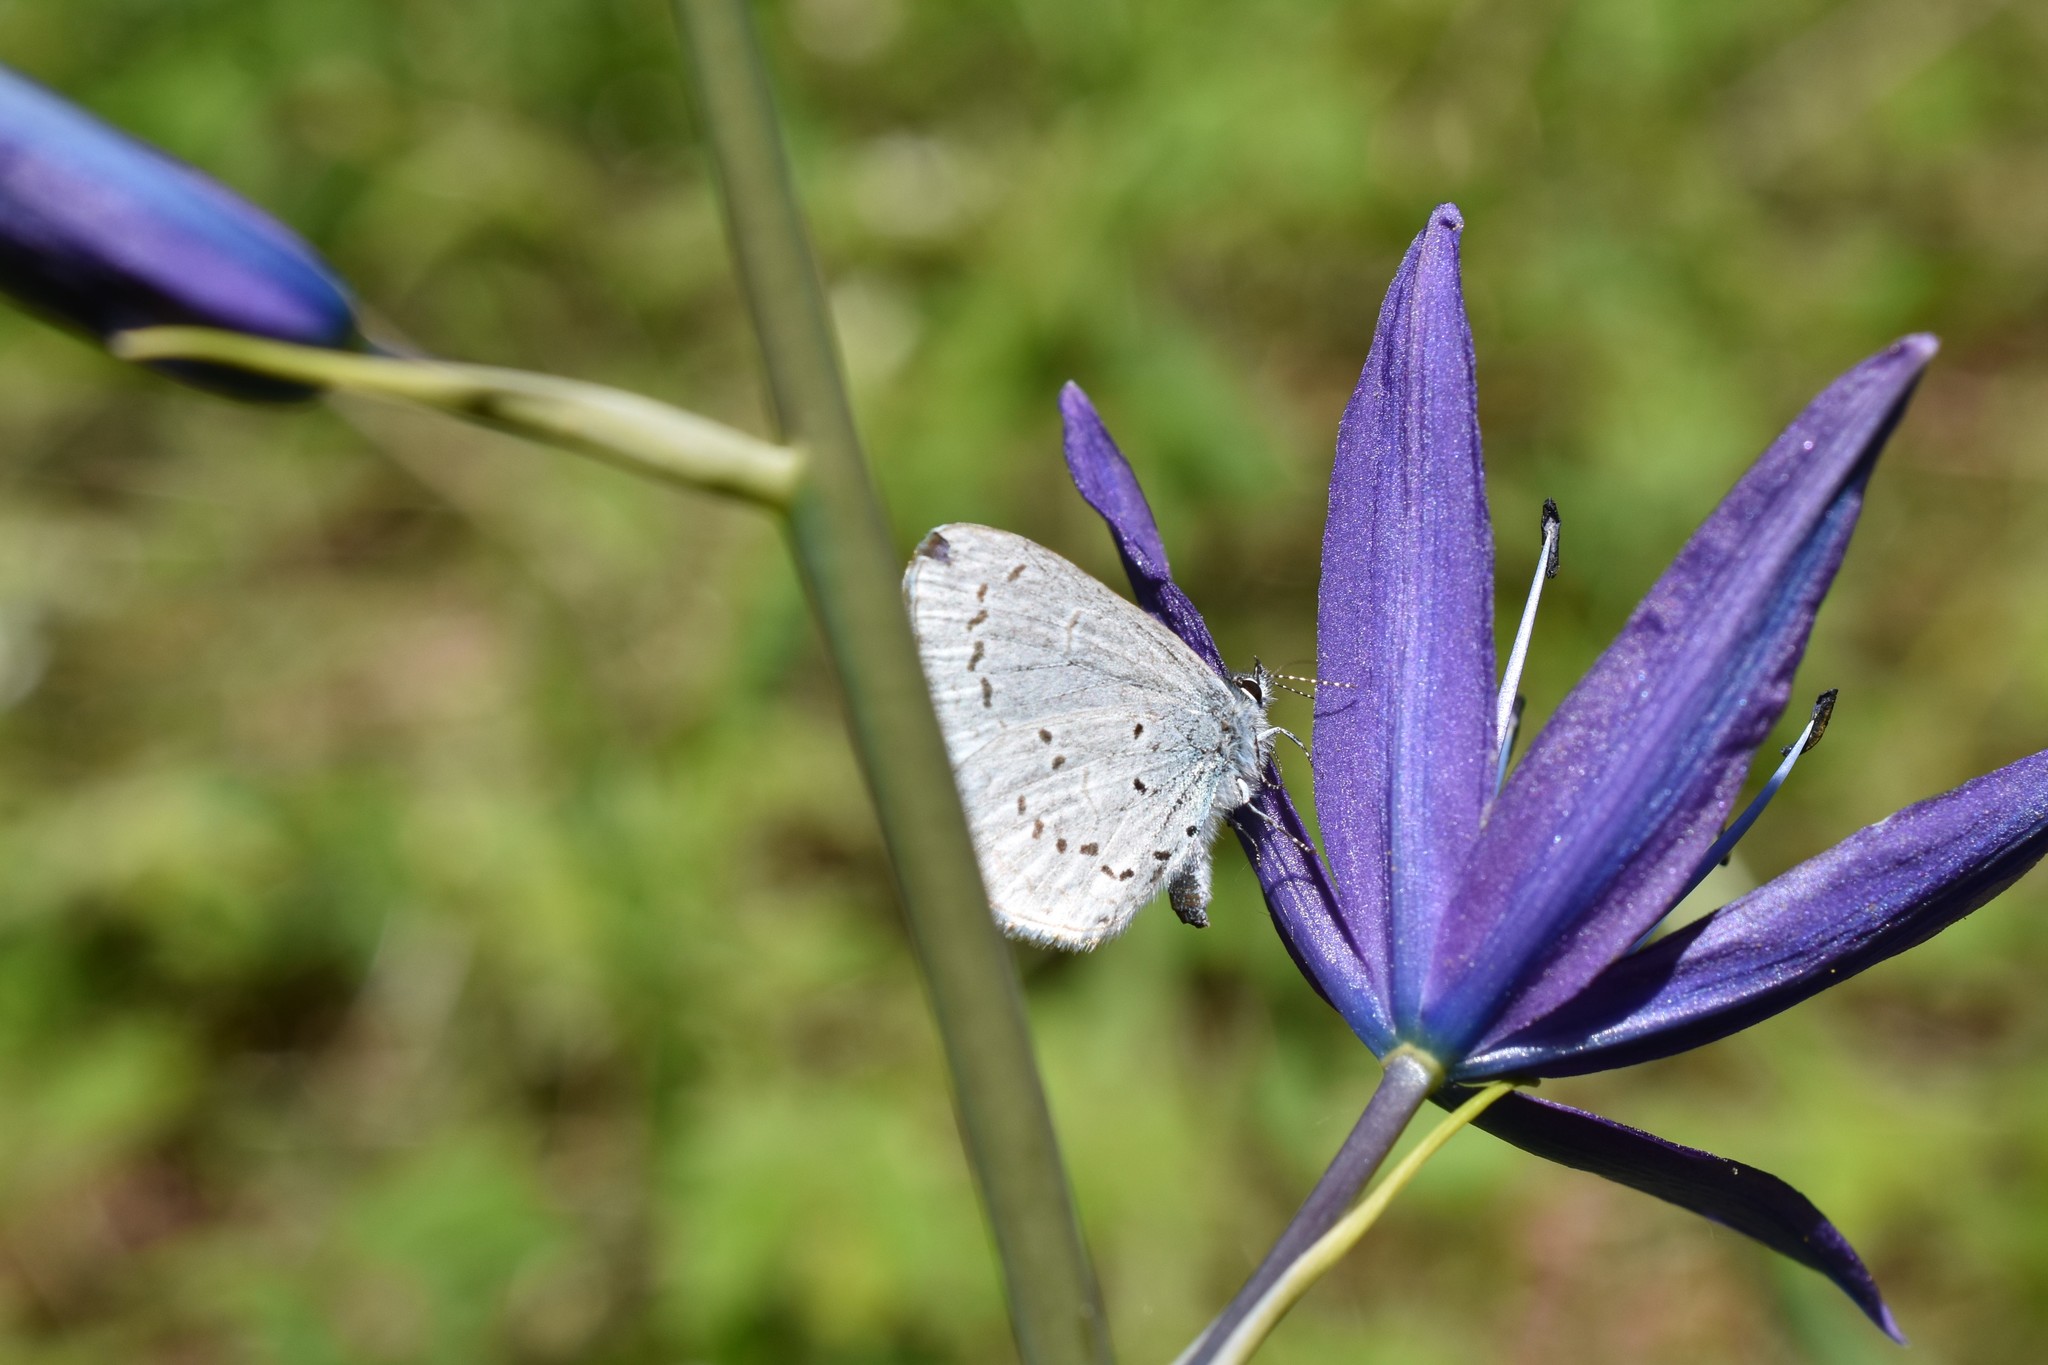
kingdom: Animalia
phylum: Arthropoda
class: Insecta
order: Lepidoptera
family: Lycaenidae
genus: Celastrina
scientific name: Celastrina ladon
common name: Spring azure
